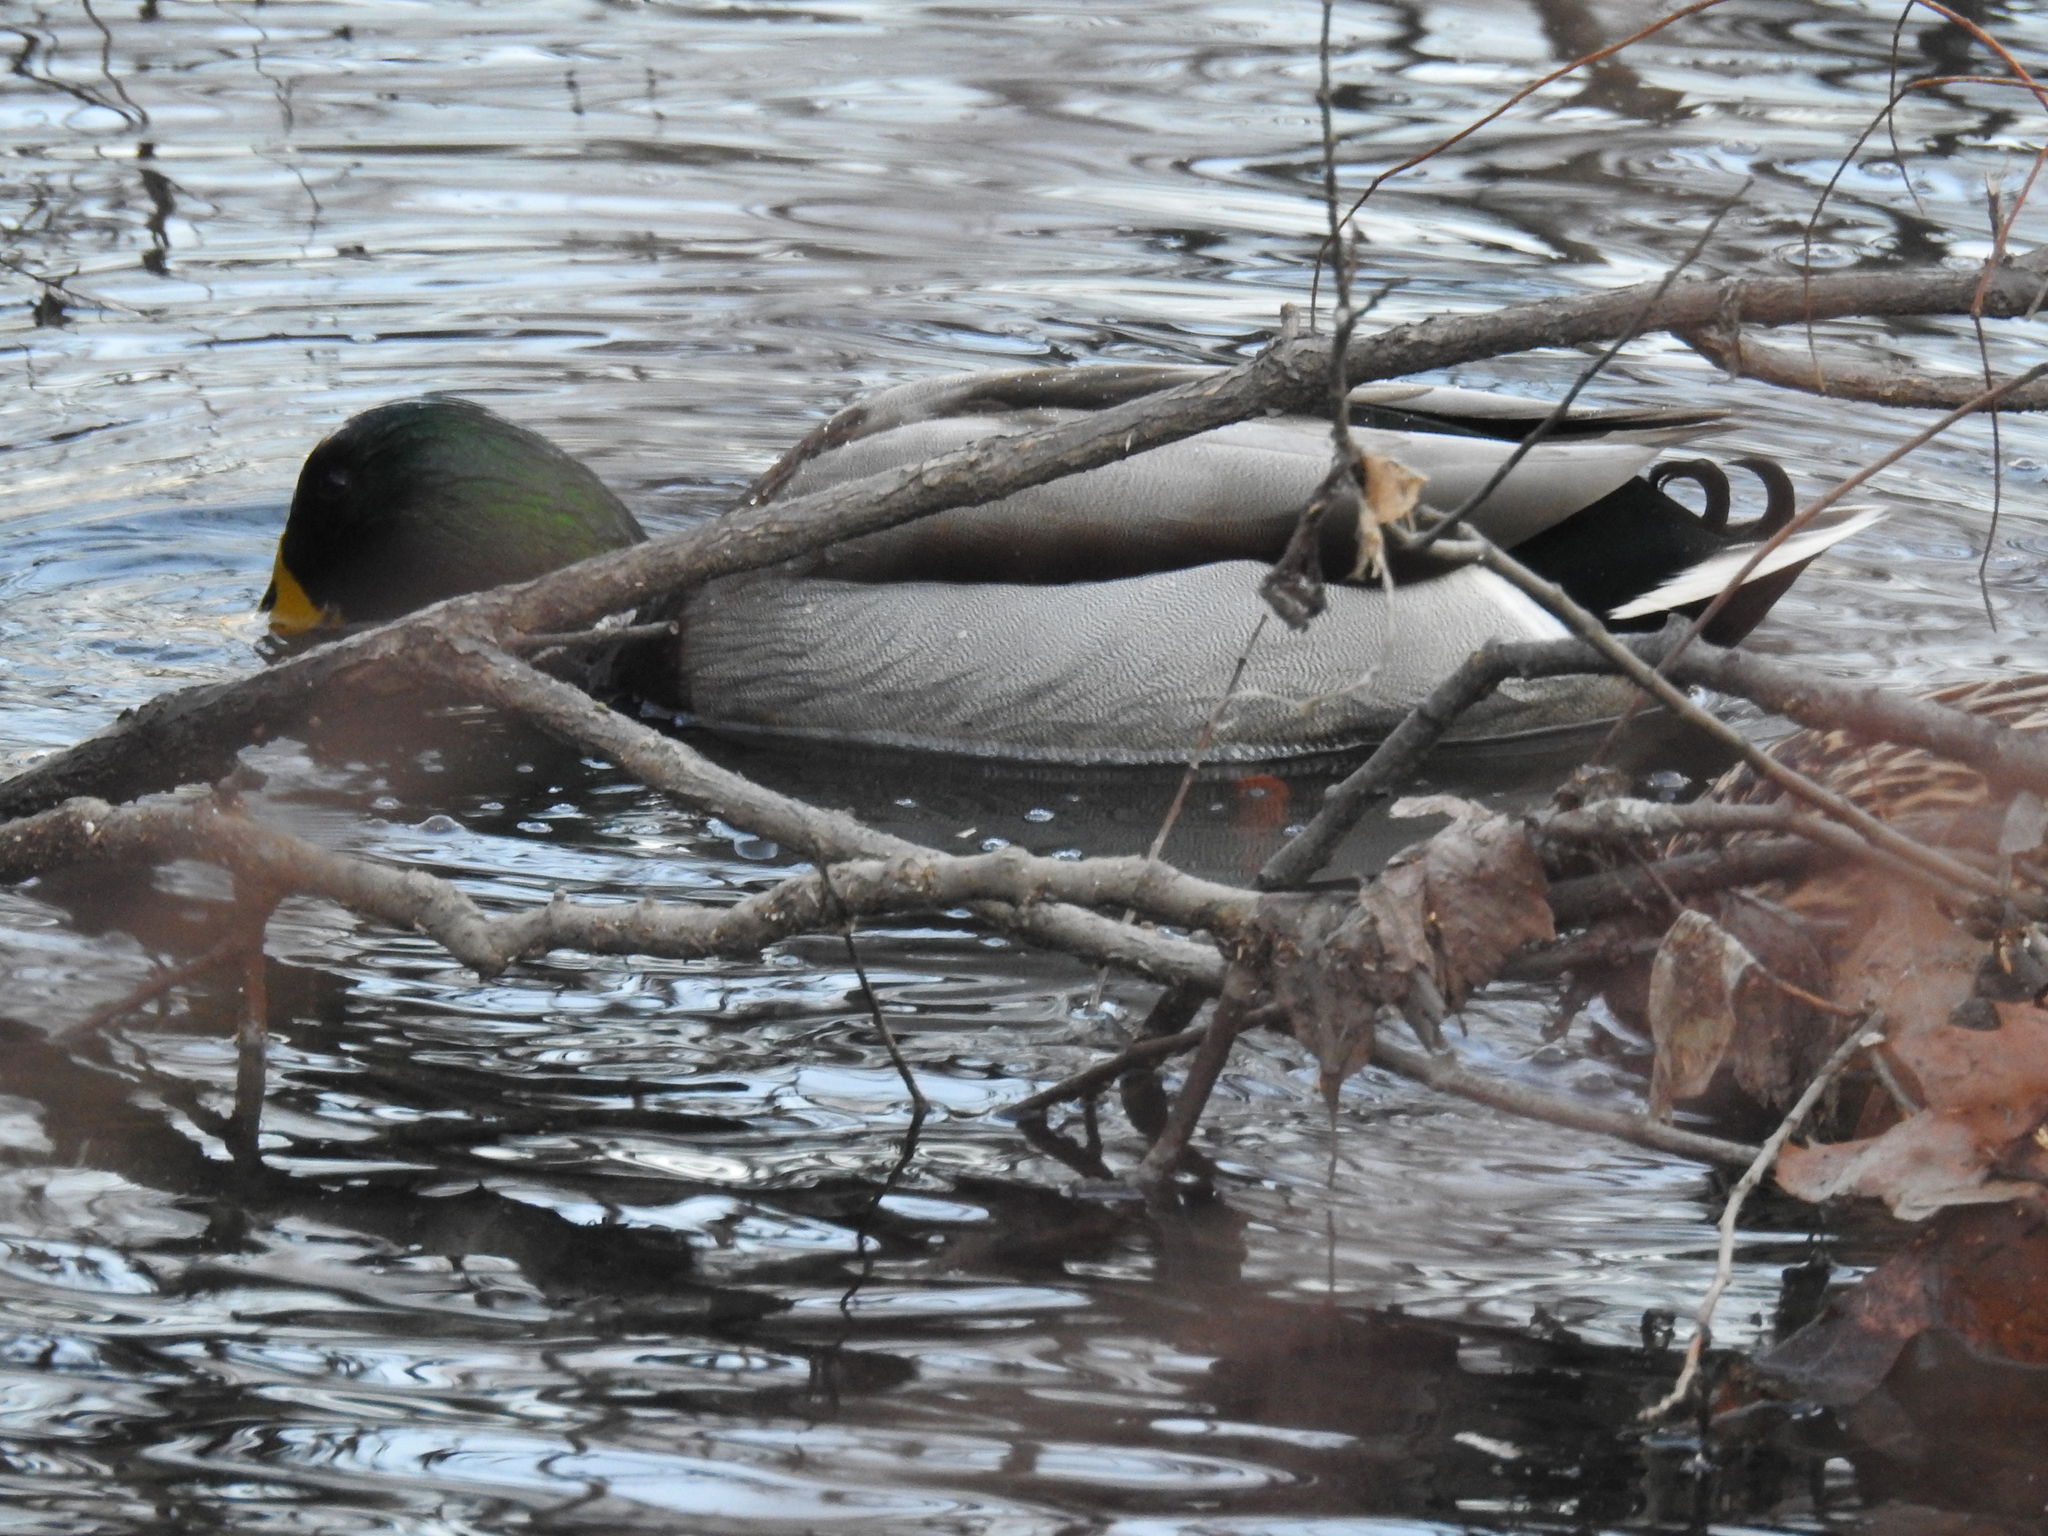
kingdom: Animalia
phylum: Chordata
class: Aves
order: Anseriformes
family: Anatidae
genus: Anas
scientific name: Anas platyrhynchos
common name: Mallard
